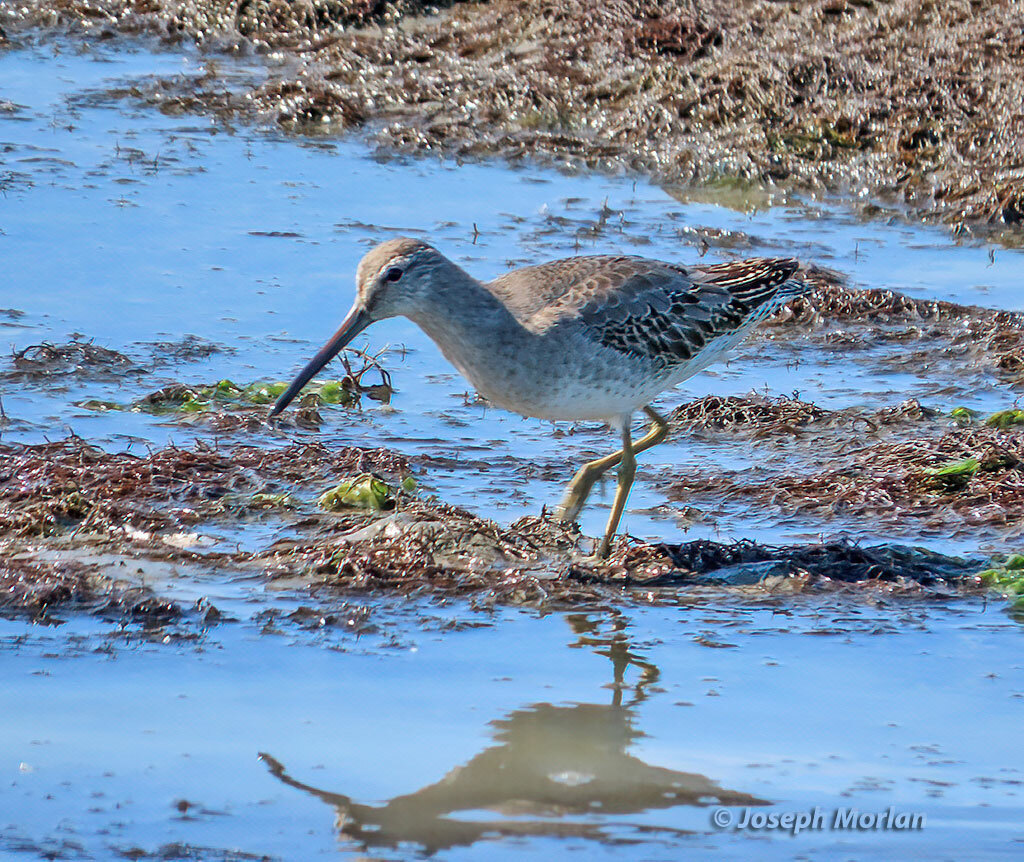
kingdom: Animalia
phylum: Chordata
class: Aves
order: Charadriiformes
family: Scolopacidae
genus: Limnodromus
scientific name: Limnodromus griseus
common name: Short-billed dowitcher
